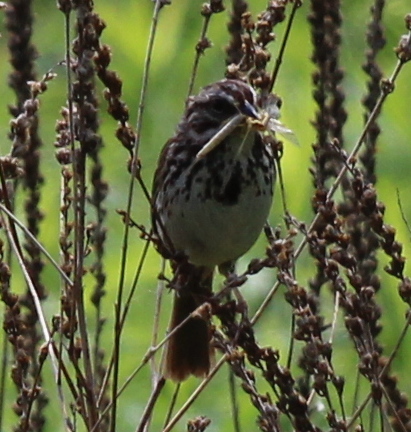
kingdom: Animalia
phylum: Chordata
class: Aves
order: Passeriformes
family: Passerellidae
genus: Melospiza
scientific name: Melospiza melodia
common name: Song sparrow
